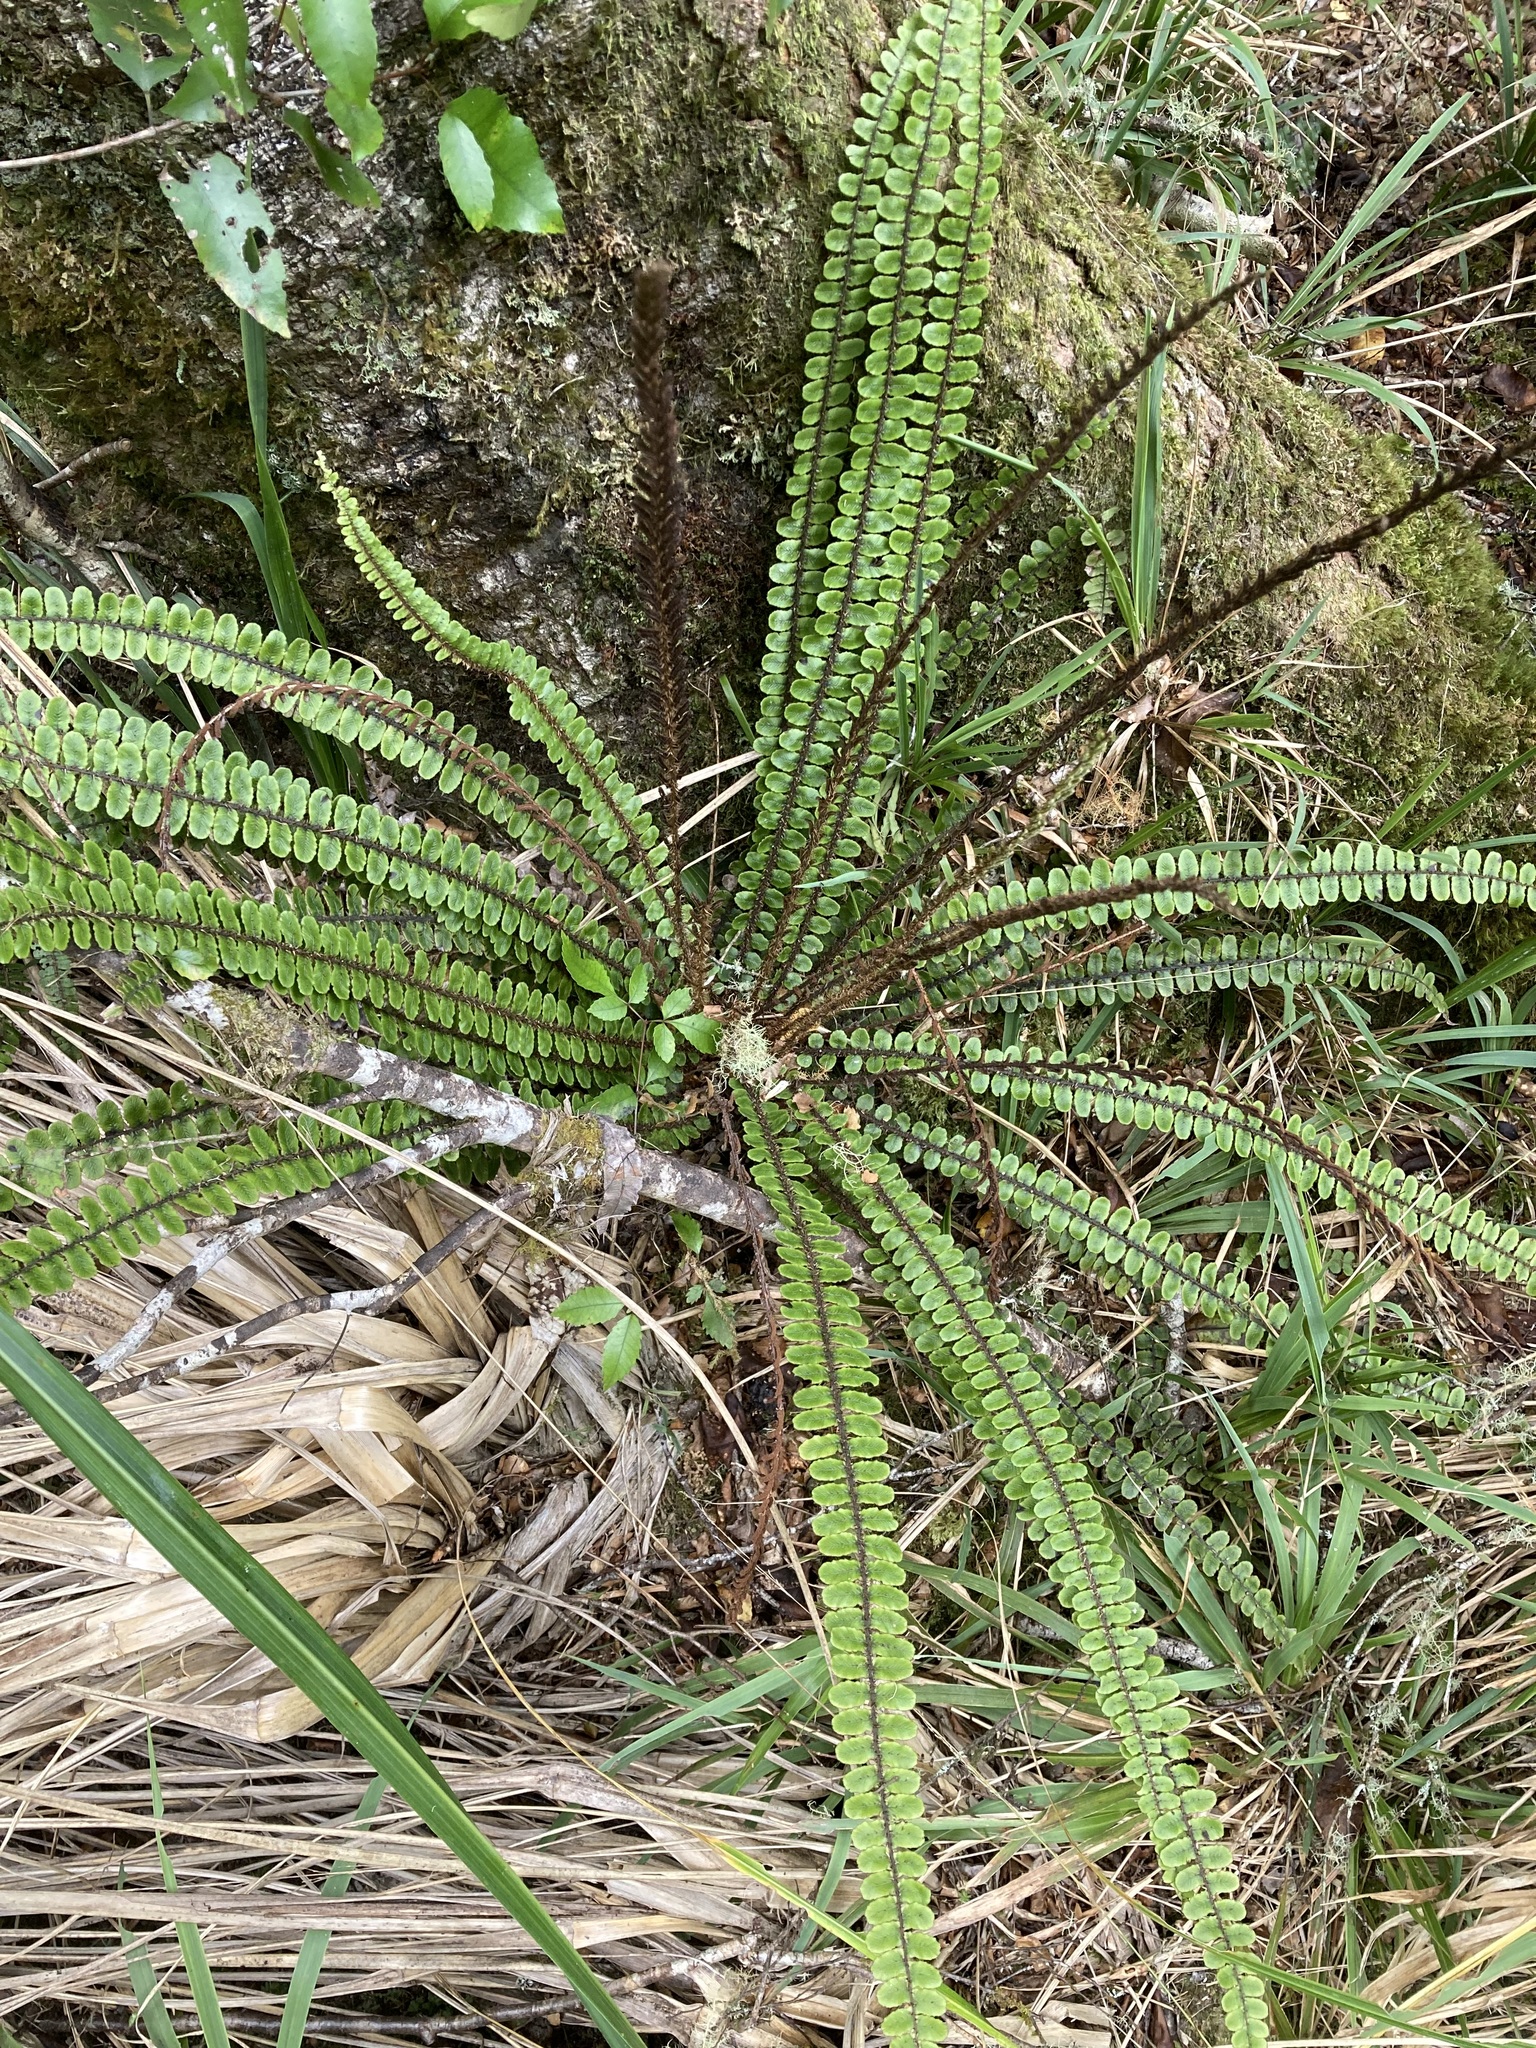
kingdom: Plantae
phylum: Tracheophyta
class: Polypodiopsida
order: Polypodiales
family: Blechnaceae
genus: Cranfillia
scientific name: Cranfillia fluviatilis
